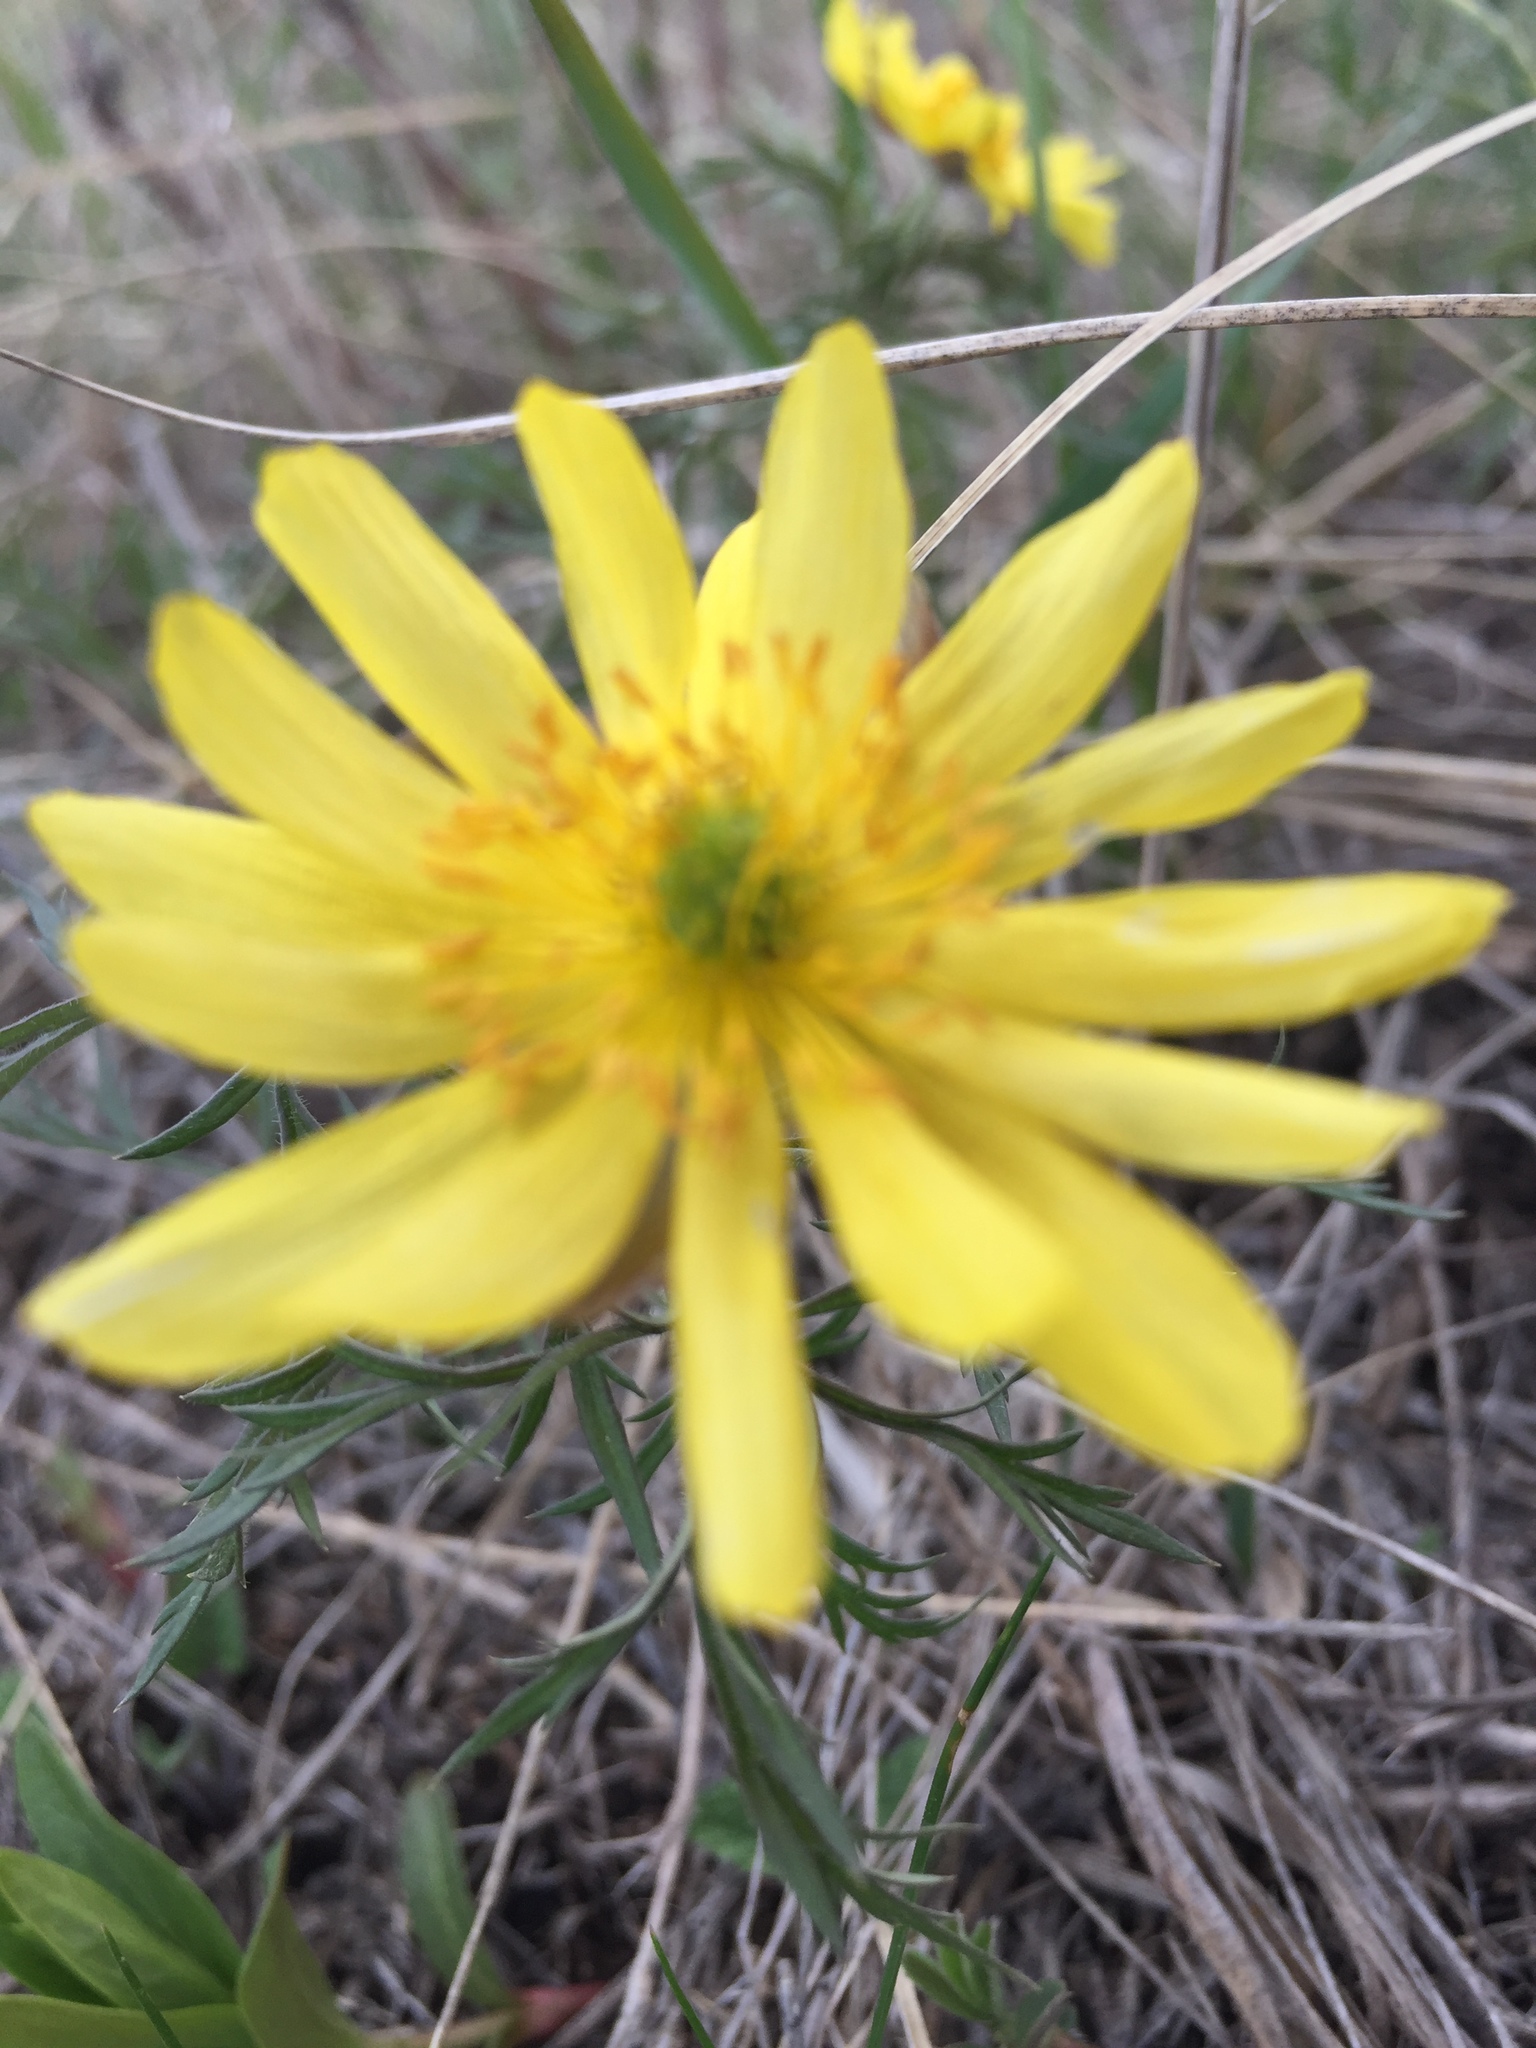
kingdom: Plantae
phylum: Tracheophyta
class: Magnoliopsida
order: Ranunculales
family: Ranunculaceae
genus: Adonis
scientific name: Adonis volgensis
